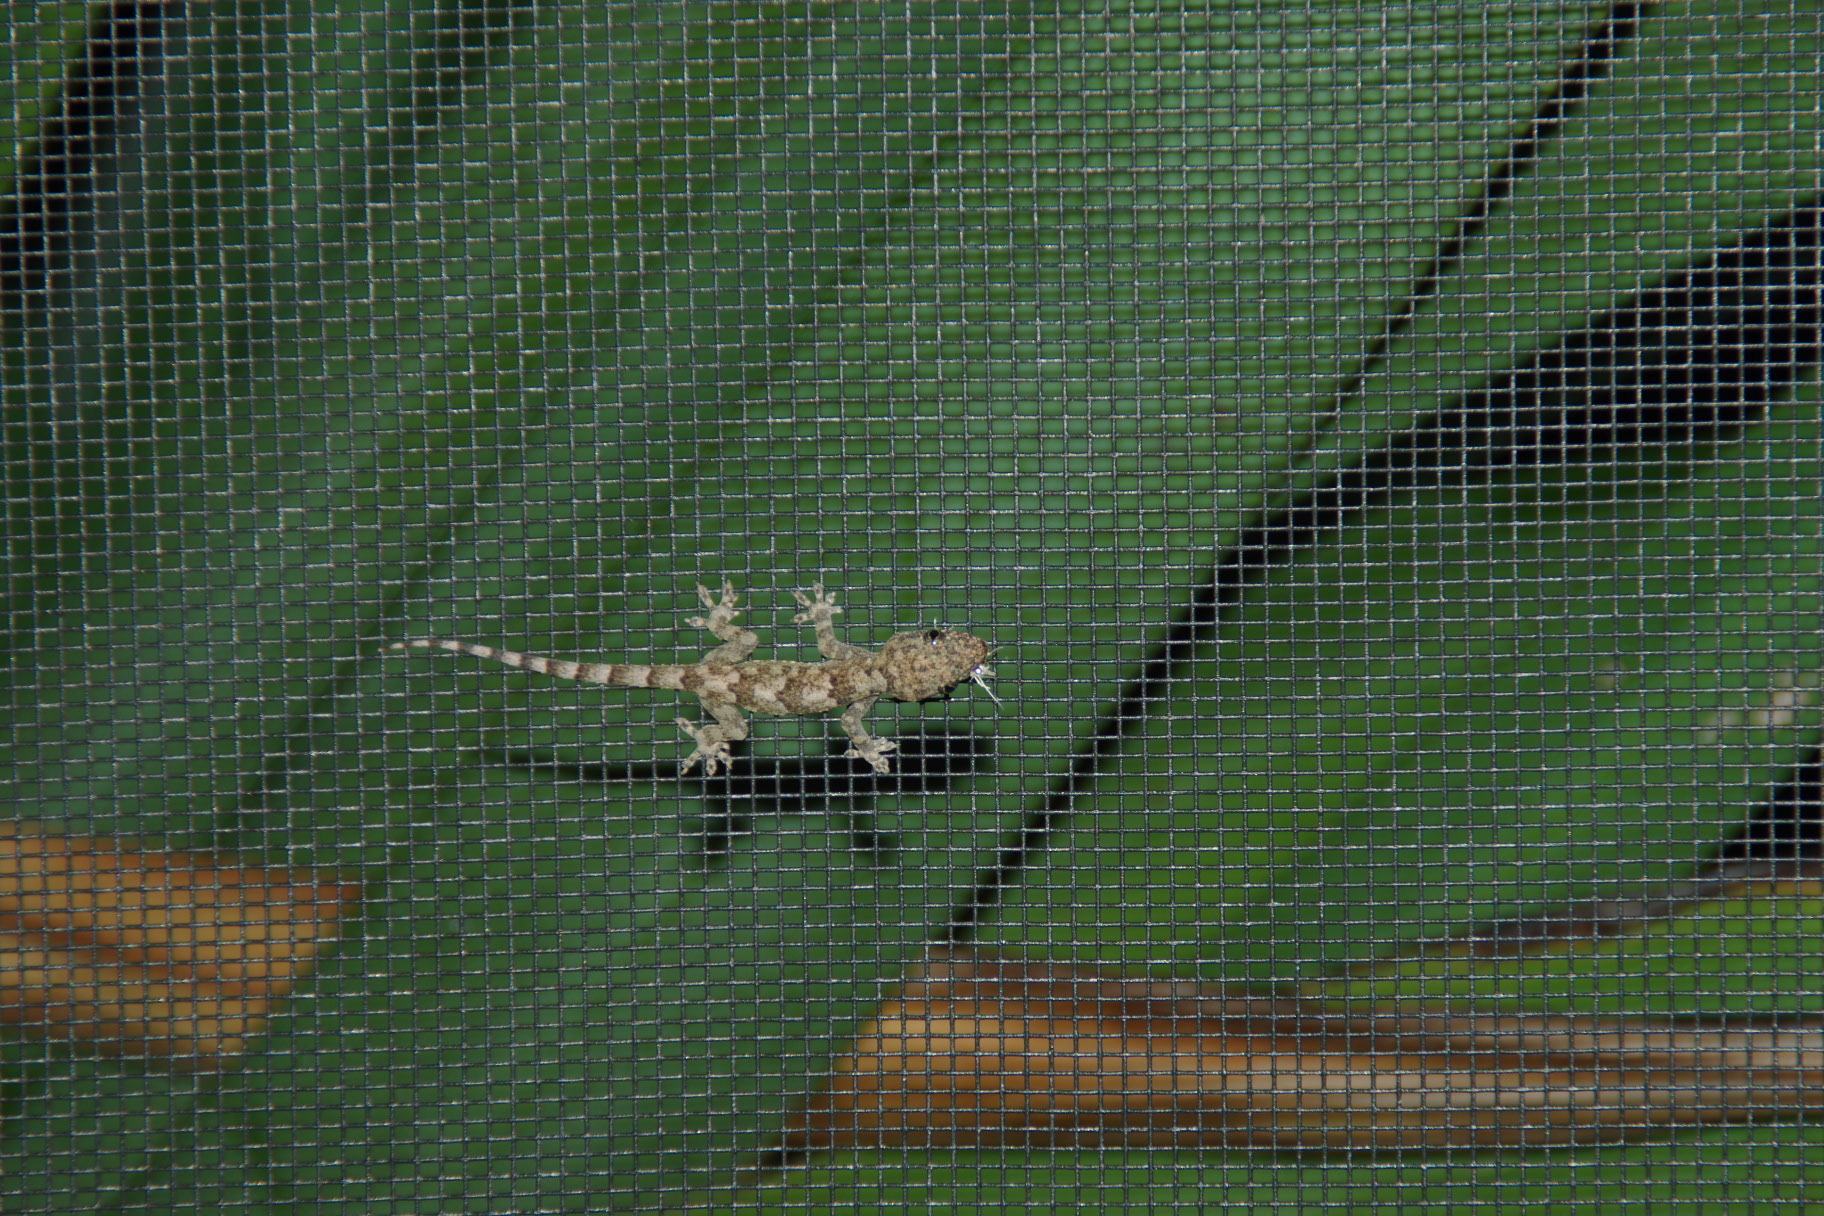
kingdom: Animalia
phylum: Chordata
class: Squamata
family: Gekkonidae
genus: Hemidactylus
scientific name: Hemidactylus mabouia
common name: House gecko
